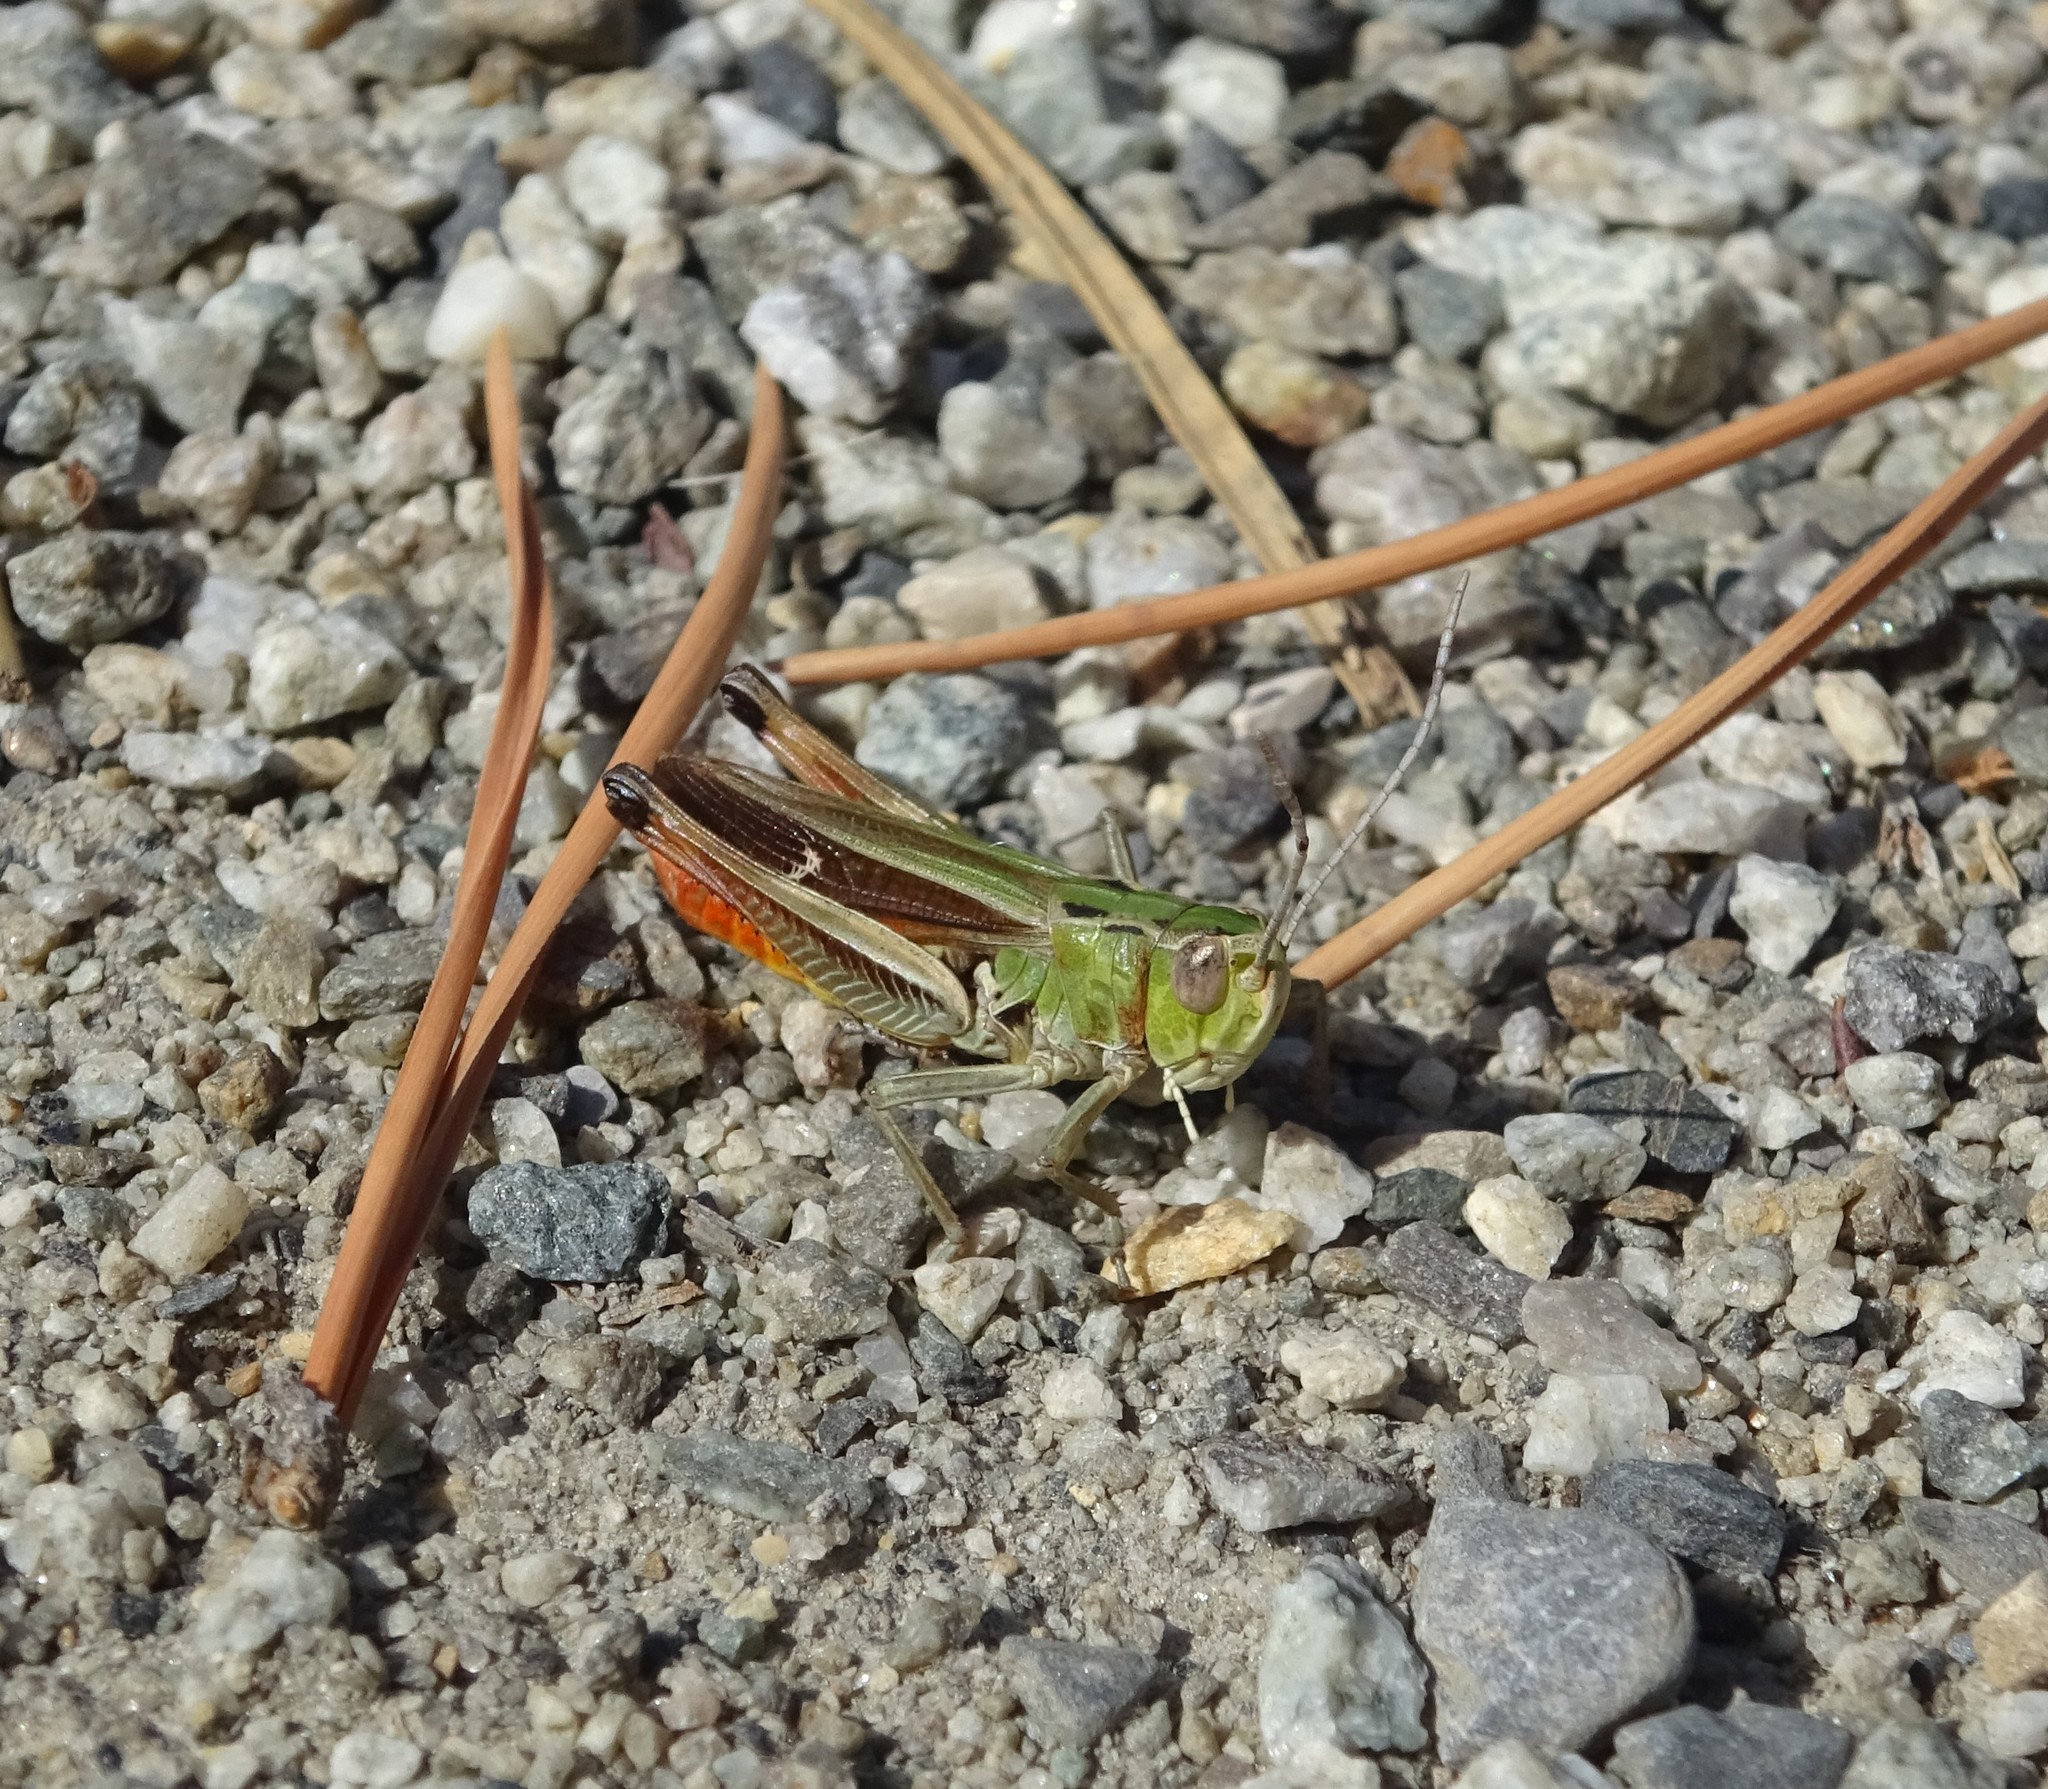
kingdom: Animalia
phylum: Arthropoda
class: Insecta
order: Orthoptera
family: Acrididae
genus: Stenobothrus
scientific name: Stenobothrus lineatus
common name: Stripe-winged grasshopper
